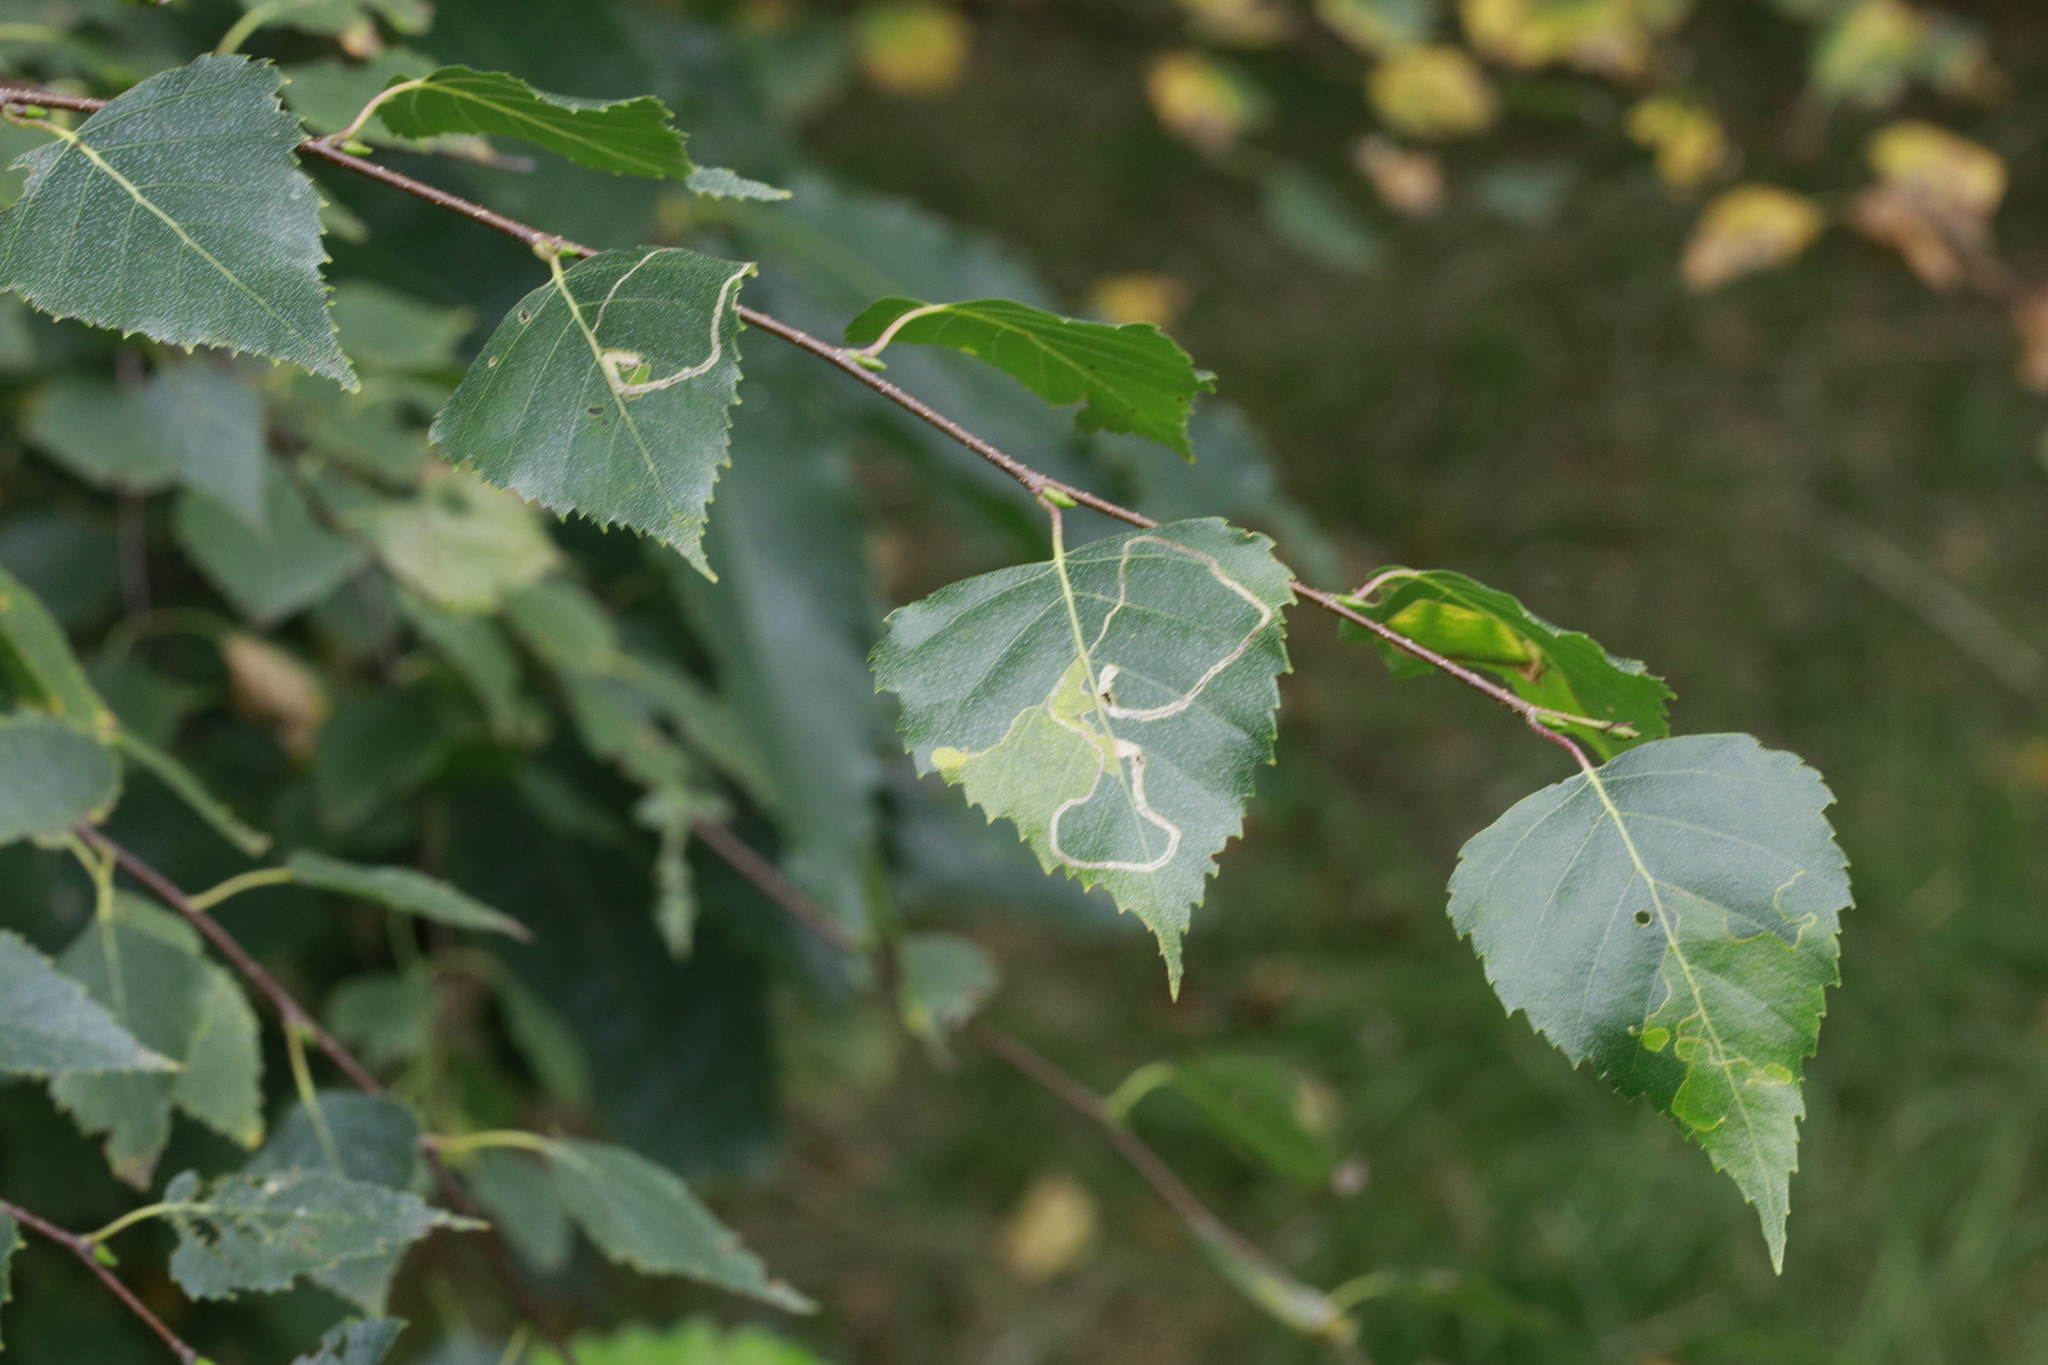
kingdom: Plantae
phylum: Tracheophyta
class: Magnoliopsida
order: Fagales
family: Betulaceae
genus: Betula
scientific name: Betula pendula
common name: Silver birch
